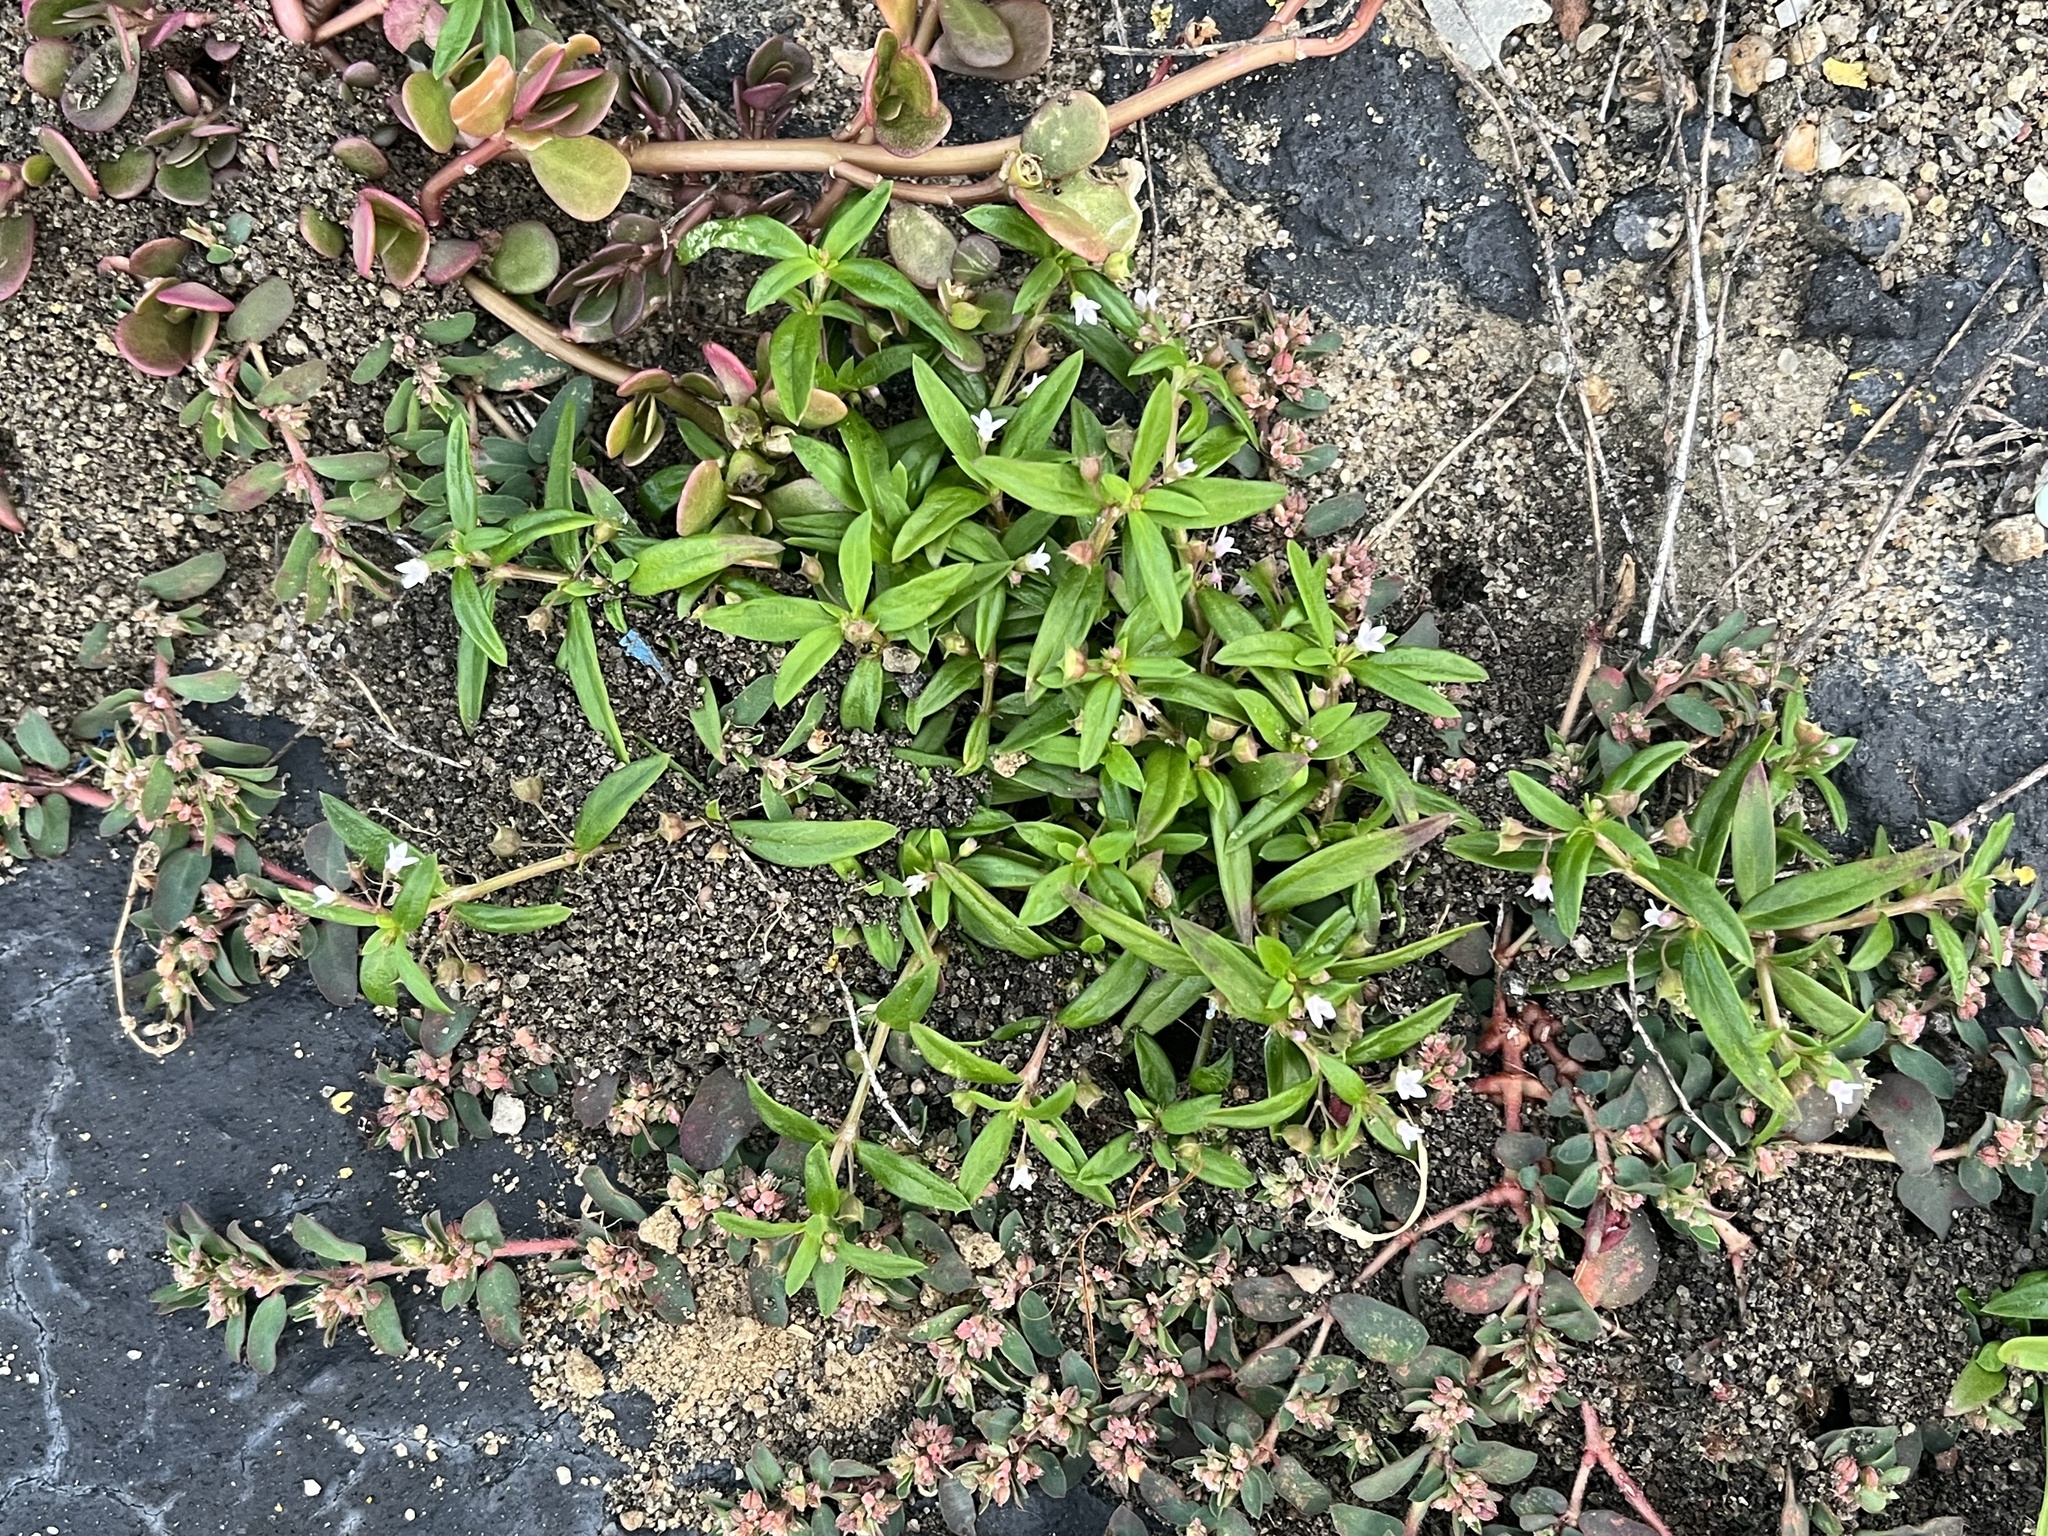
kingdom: Plantae
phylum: Tracheophyta
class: Magnoliopsida
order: Gentianales
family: Rubiaceae
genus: Oldenlandia
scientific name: Oldenlandia corymbosa
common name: Flat-top mille graines
